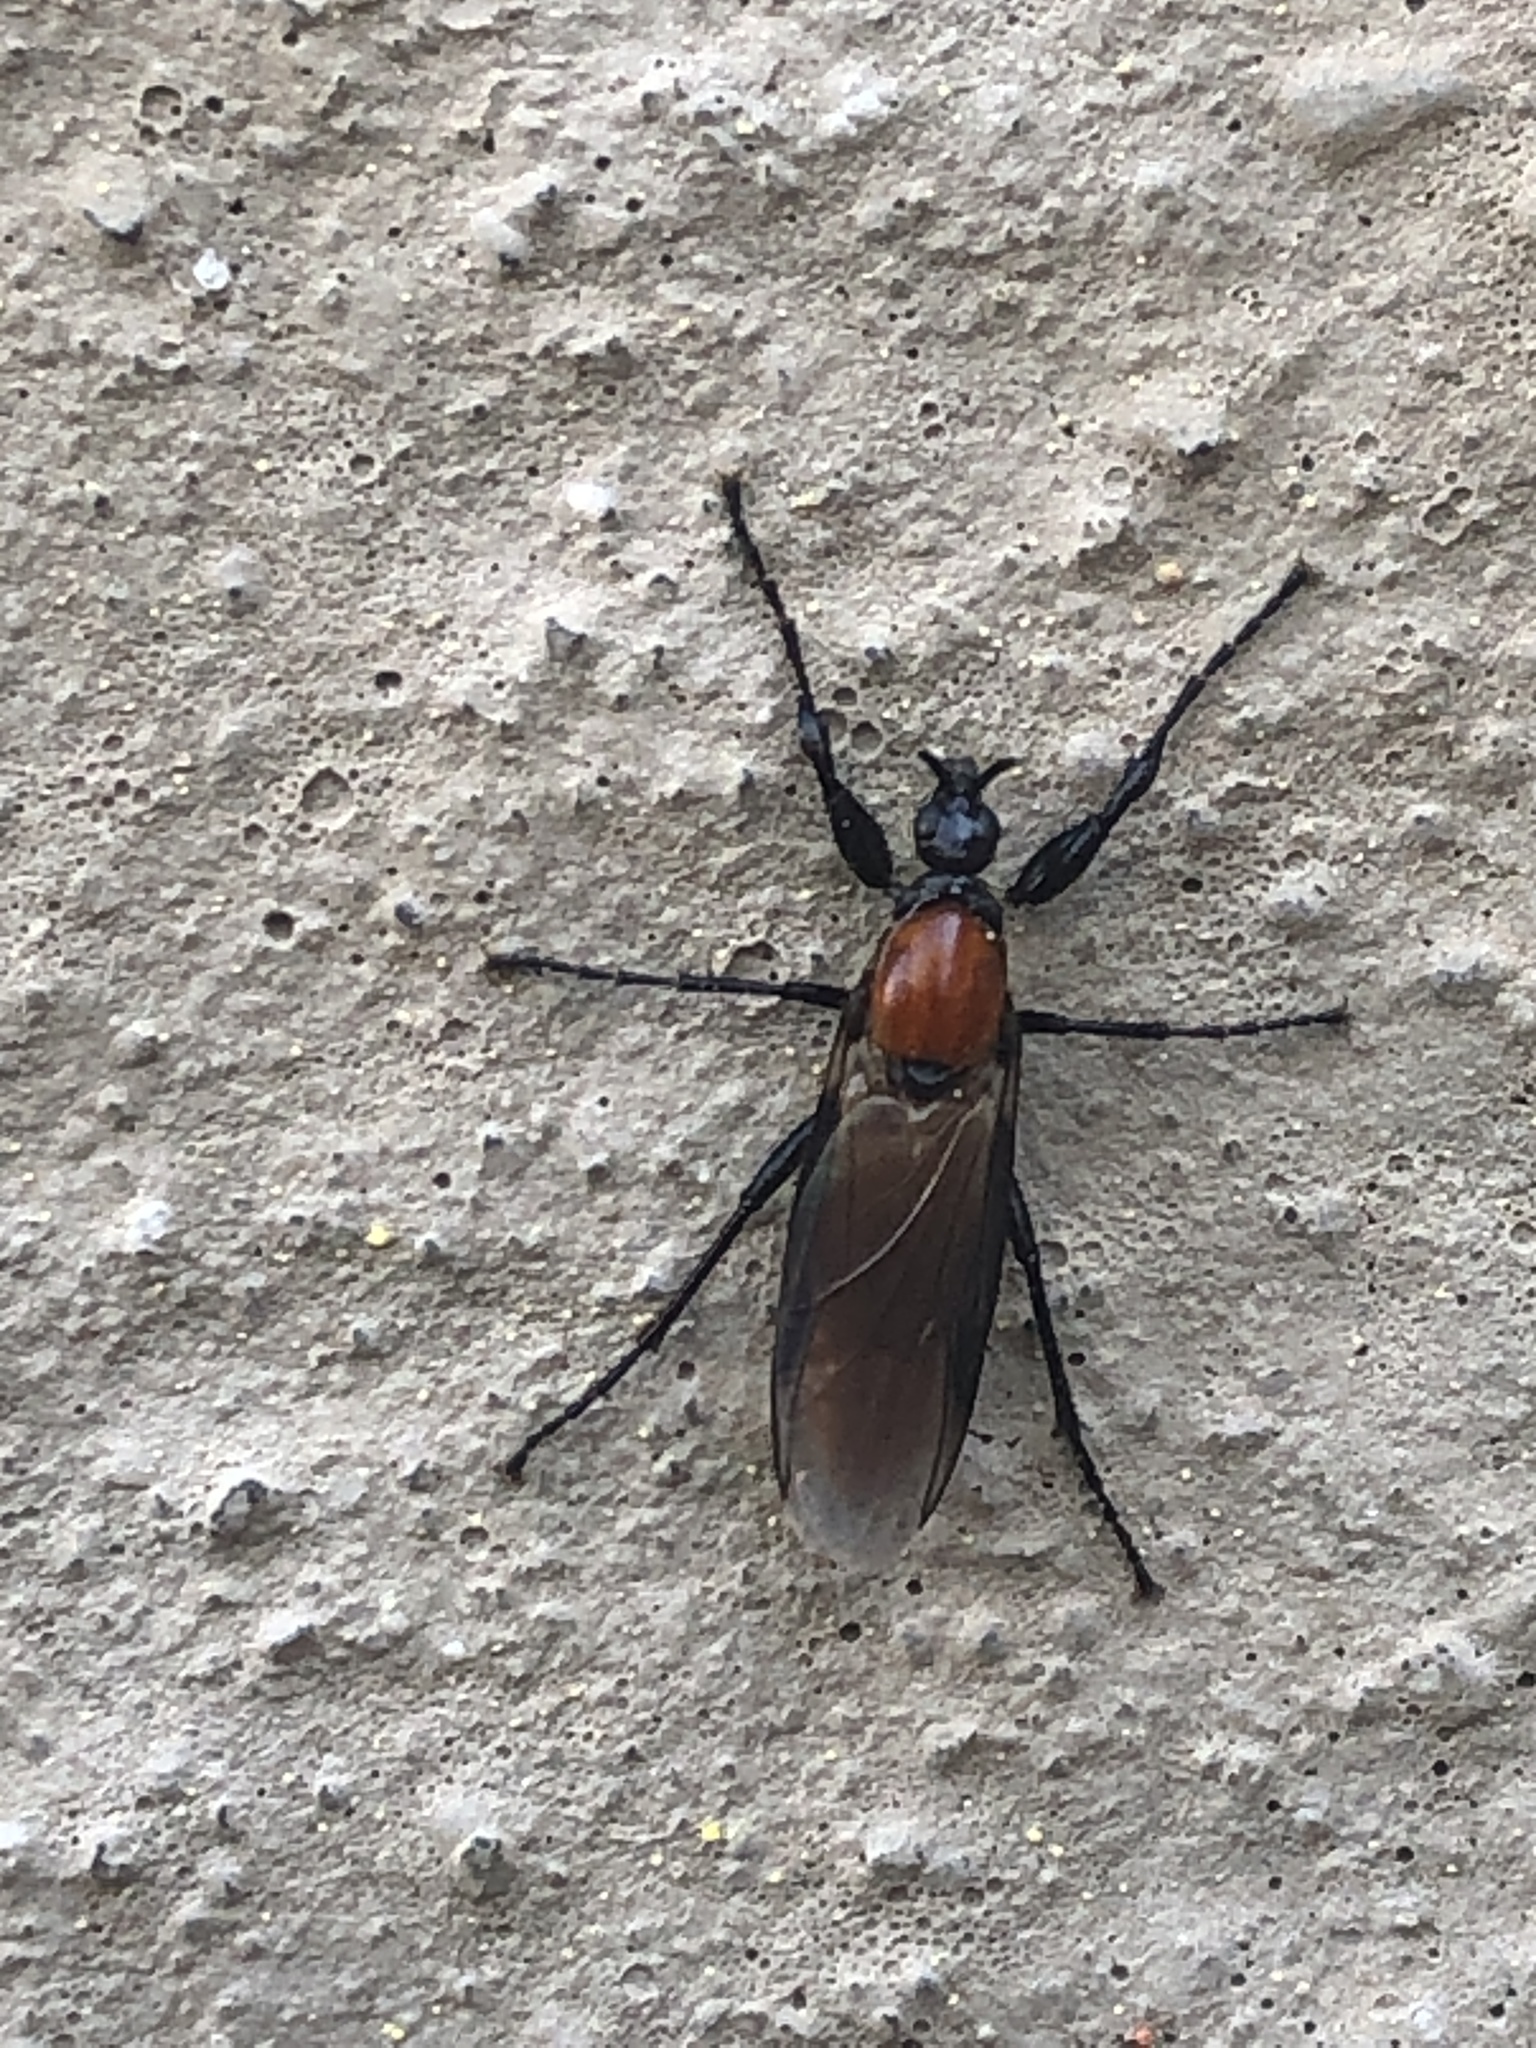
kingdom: Animalia
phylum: Arthropoda
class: Insecta
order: Diptera
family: Bibionidae
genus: Bibio
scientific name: Bibio hortulanus
